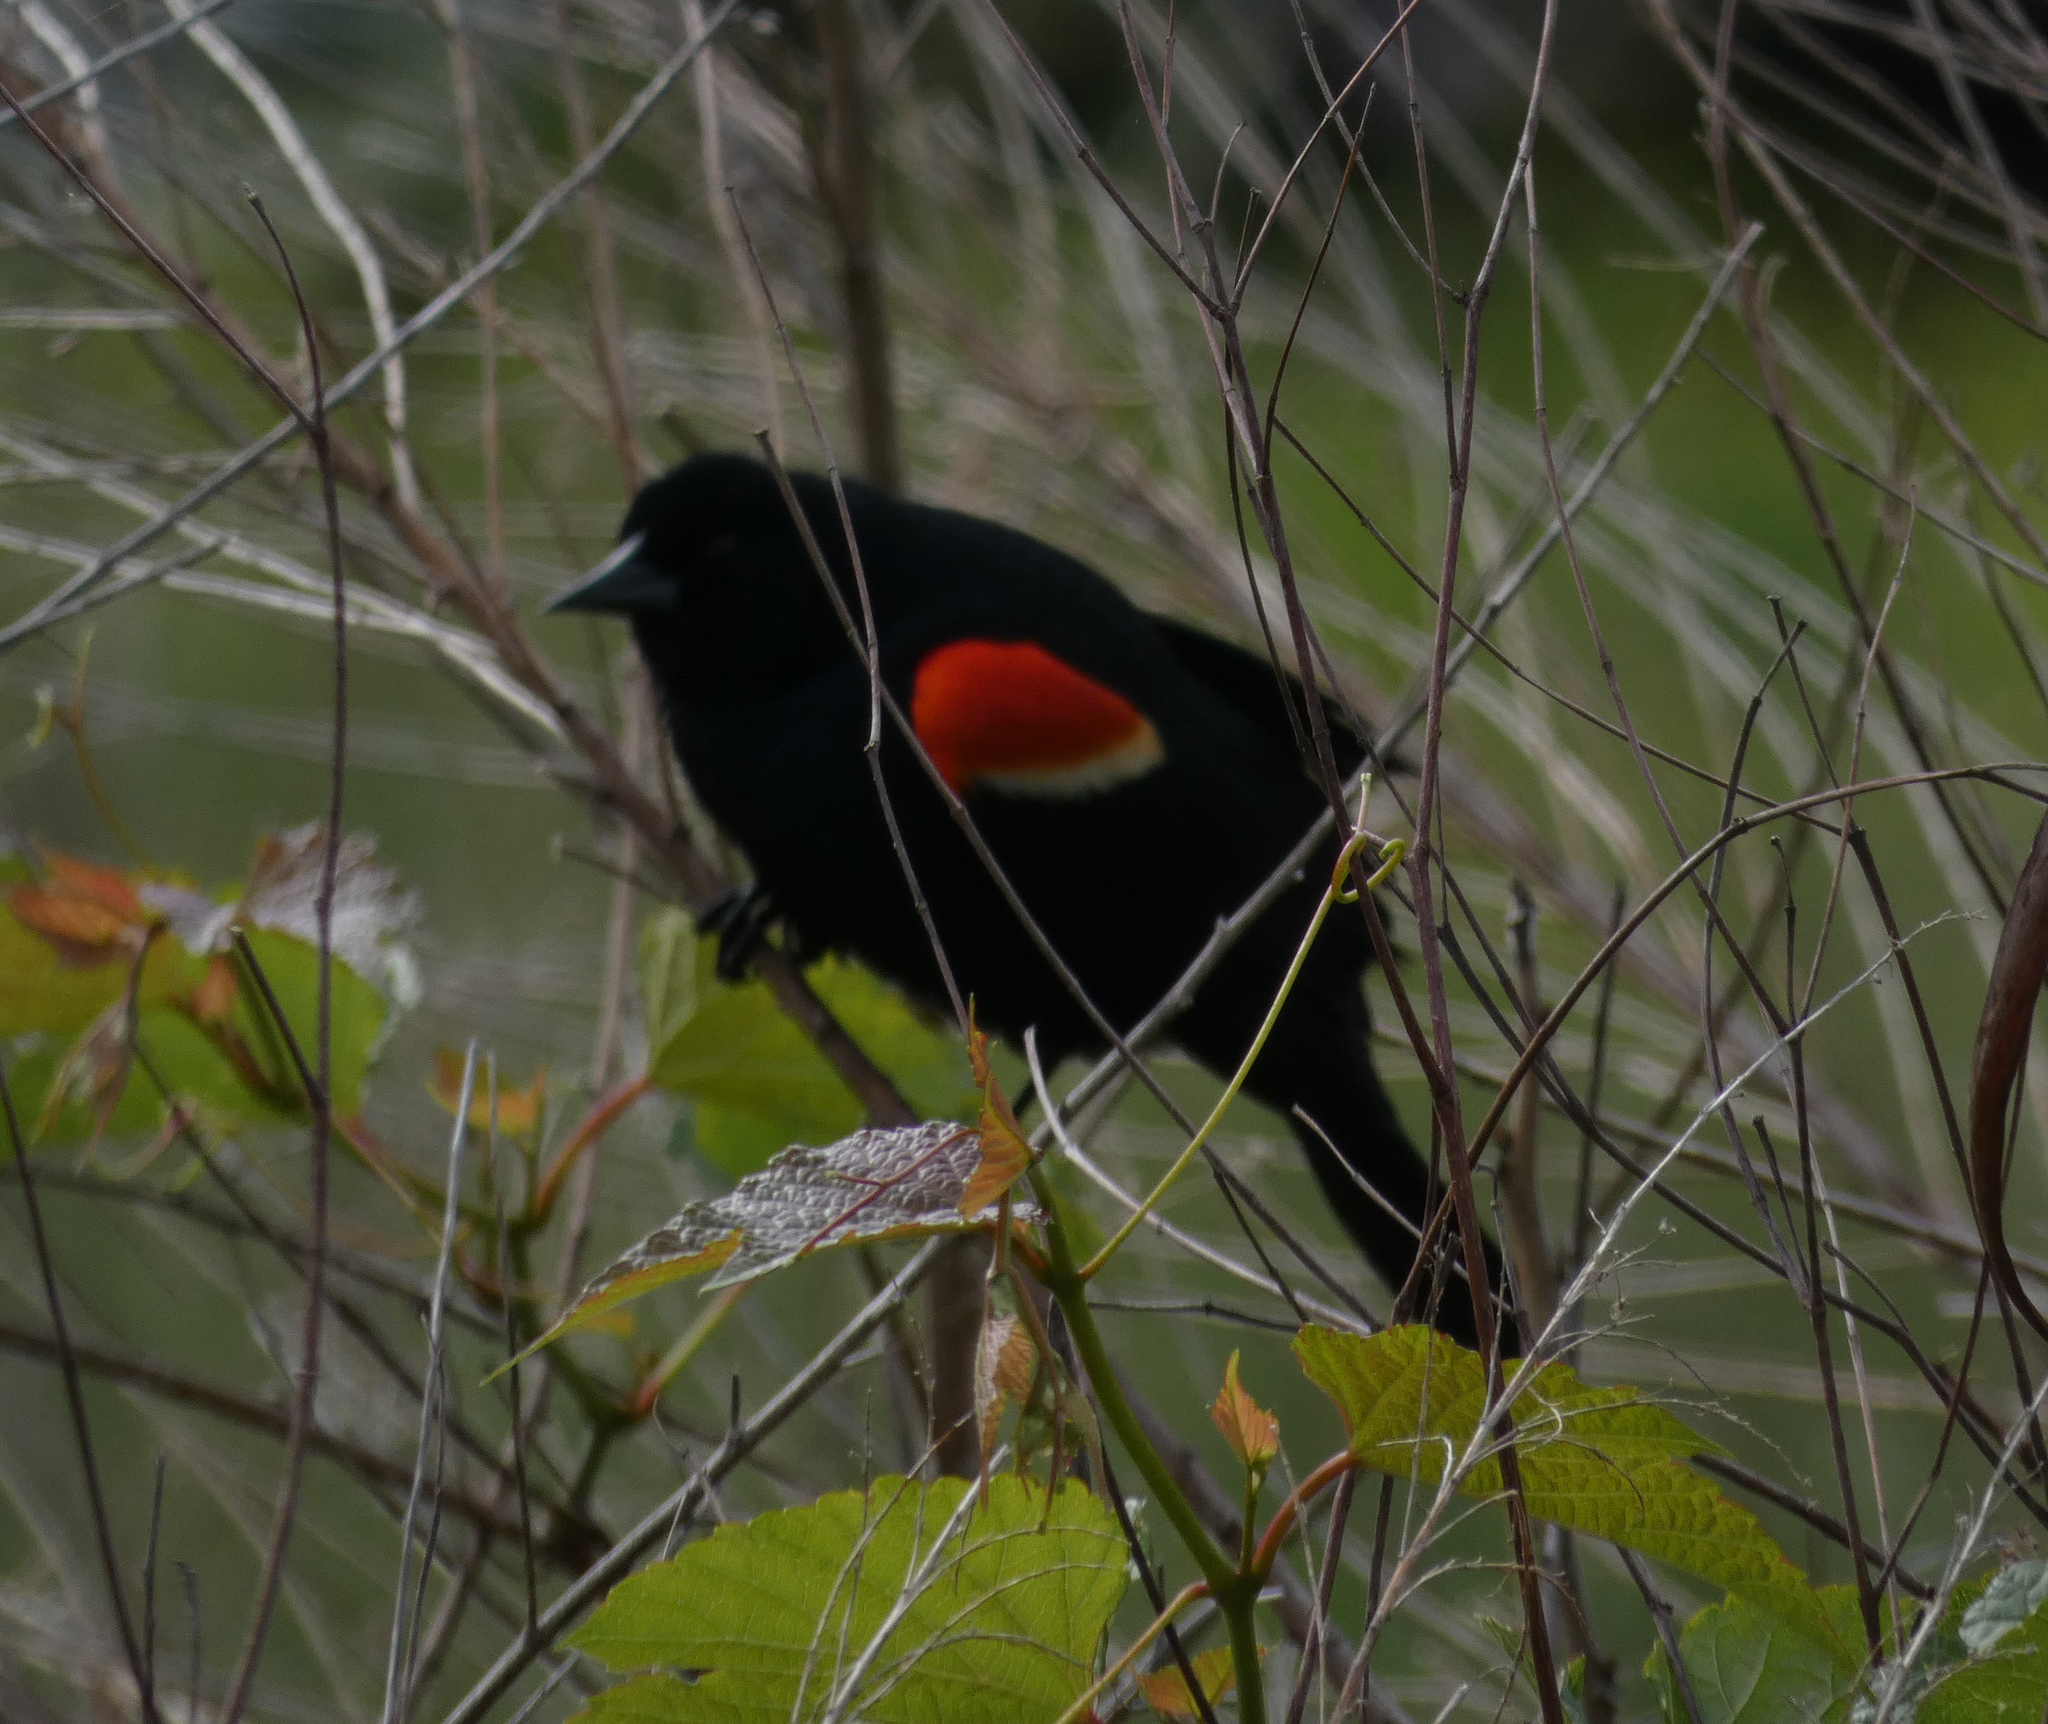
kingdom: Animalia
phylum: Chordata
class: Aves
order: Passeriformes
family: Icteridae
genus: Agelaius
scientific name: Agelaius phoeniceus
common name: Red-winged blackbird
